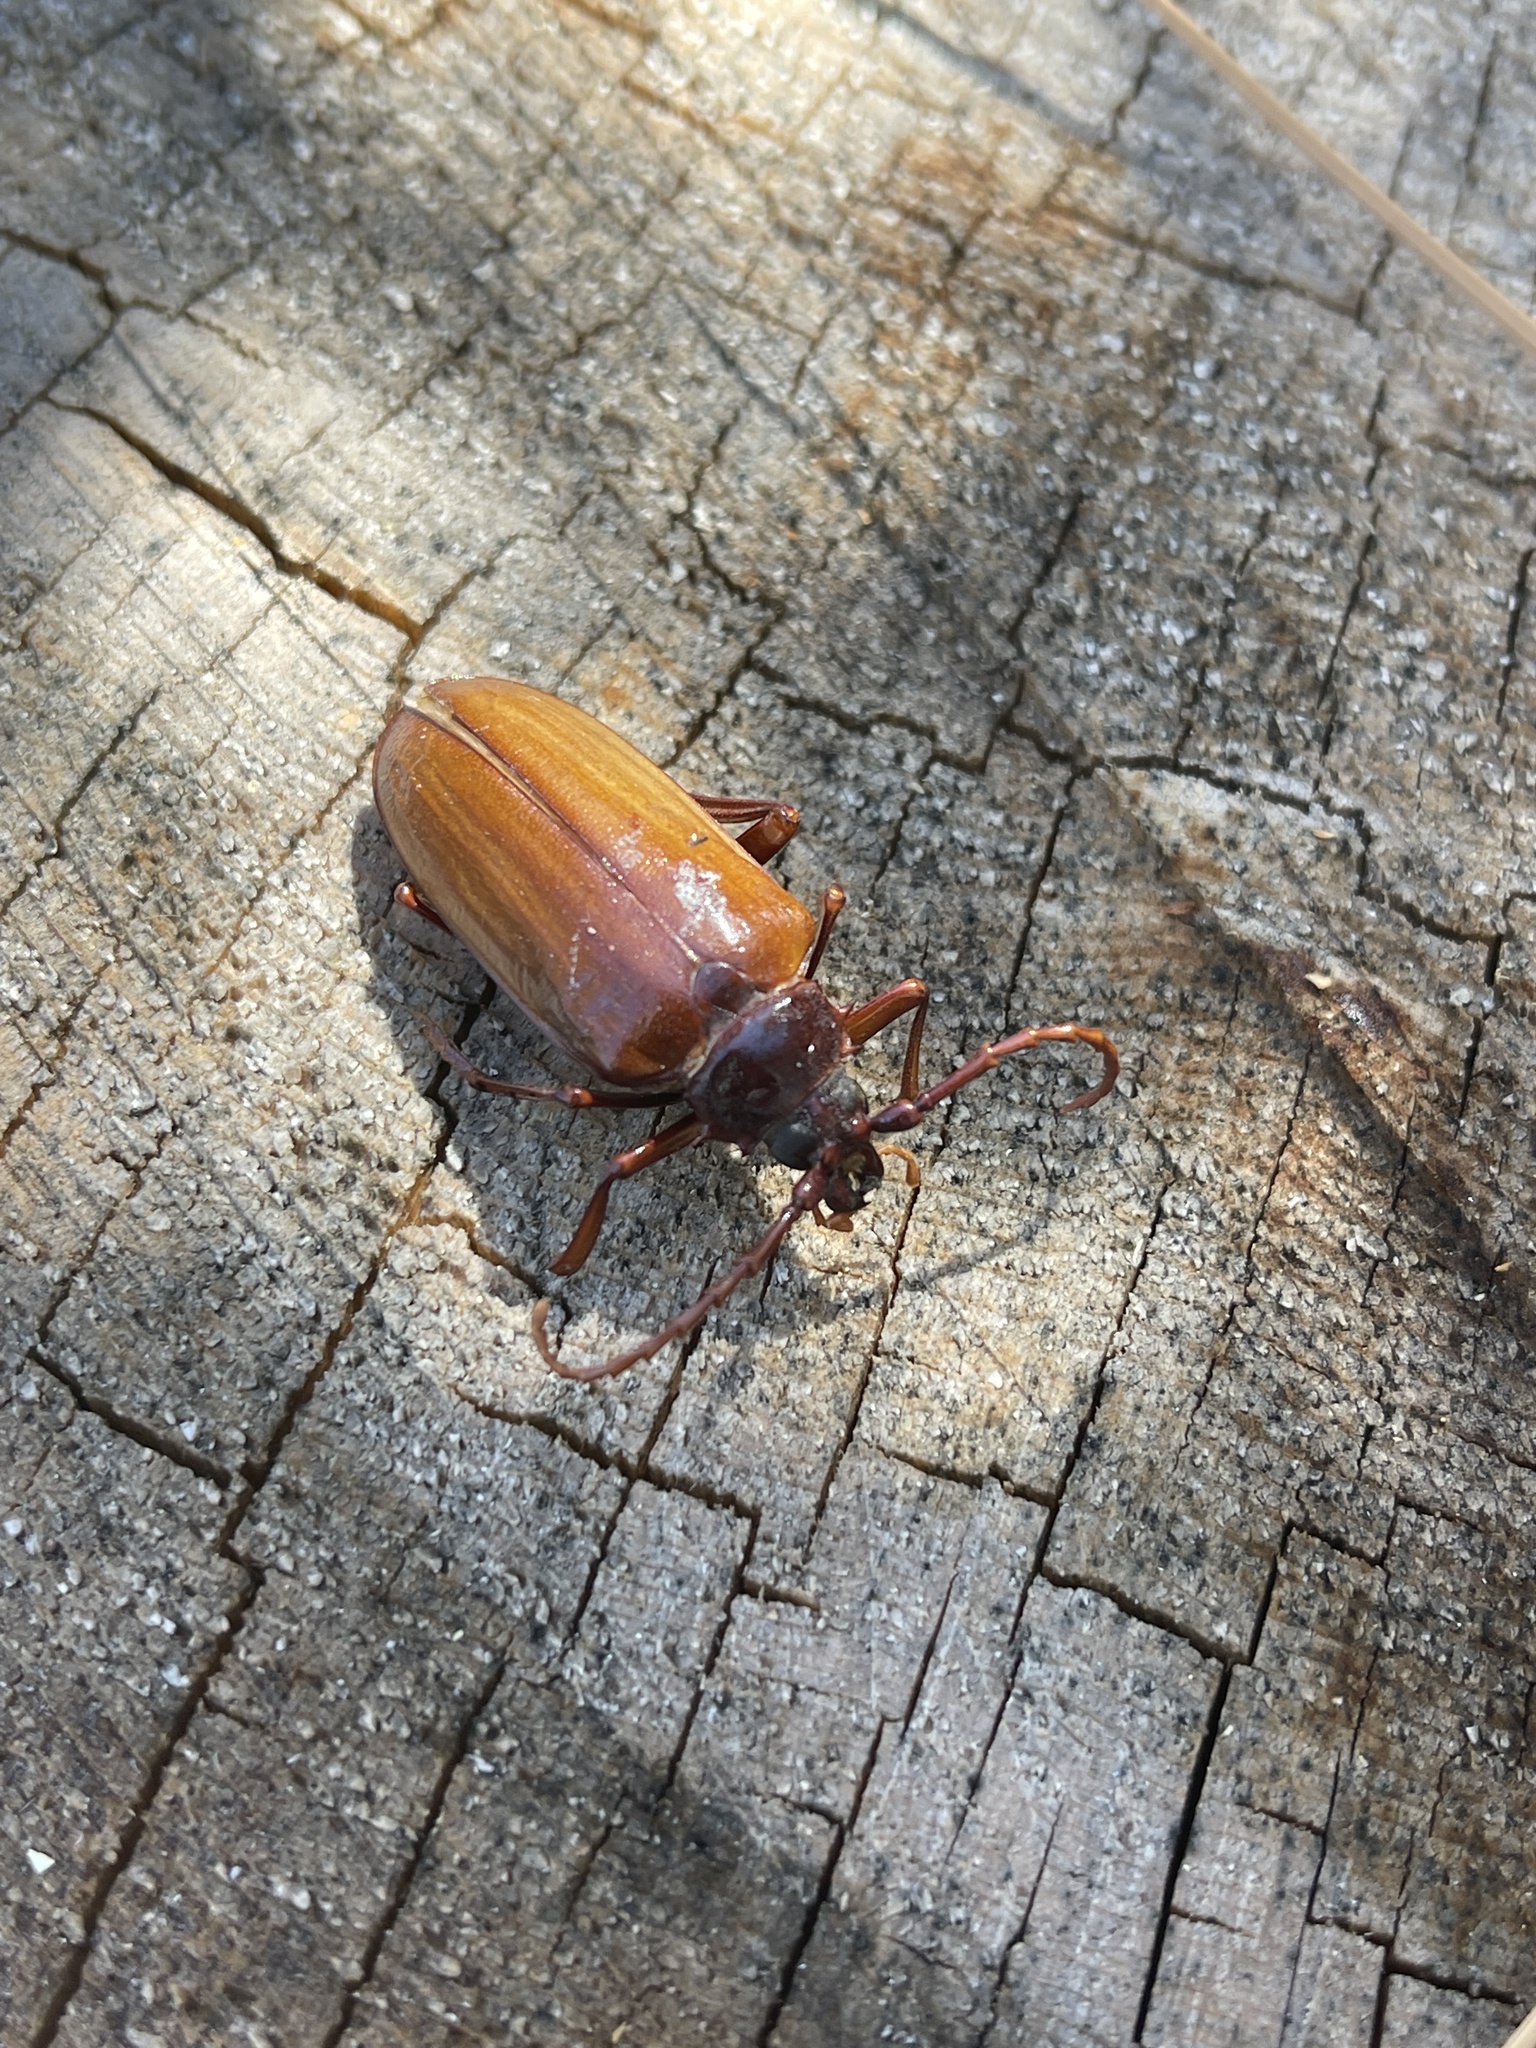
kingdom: Animalia
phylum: Arthropoda
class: Insecta
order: Coleoptera
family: Cerambycidae
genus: Prionus
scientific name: Prionus californicus
